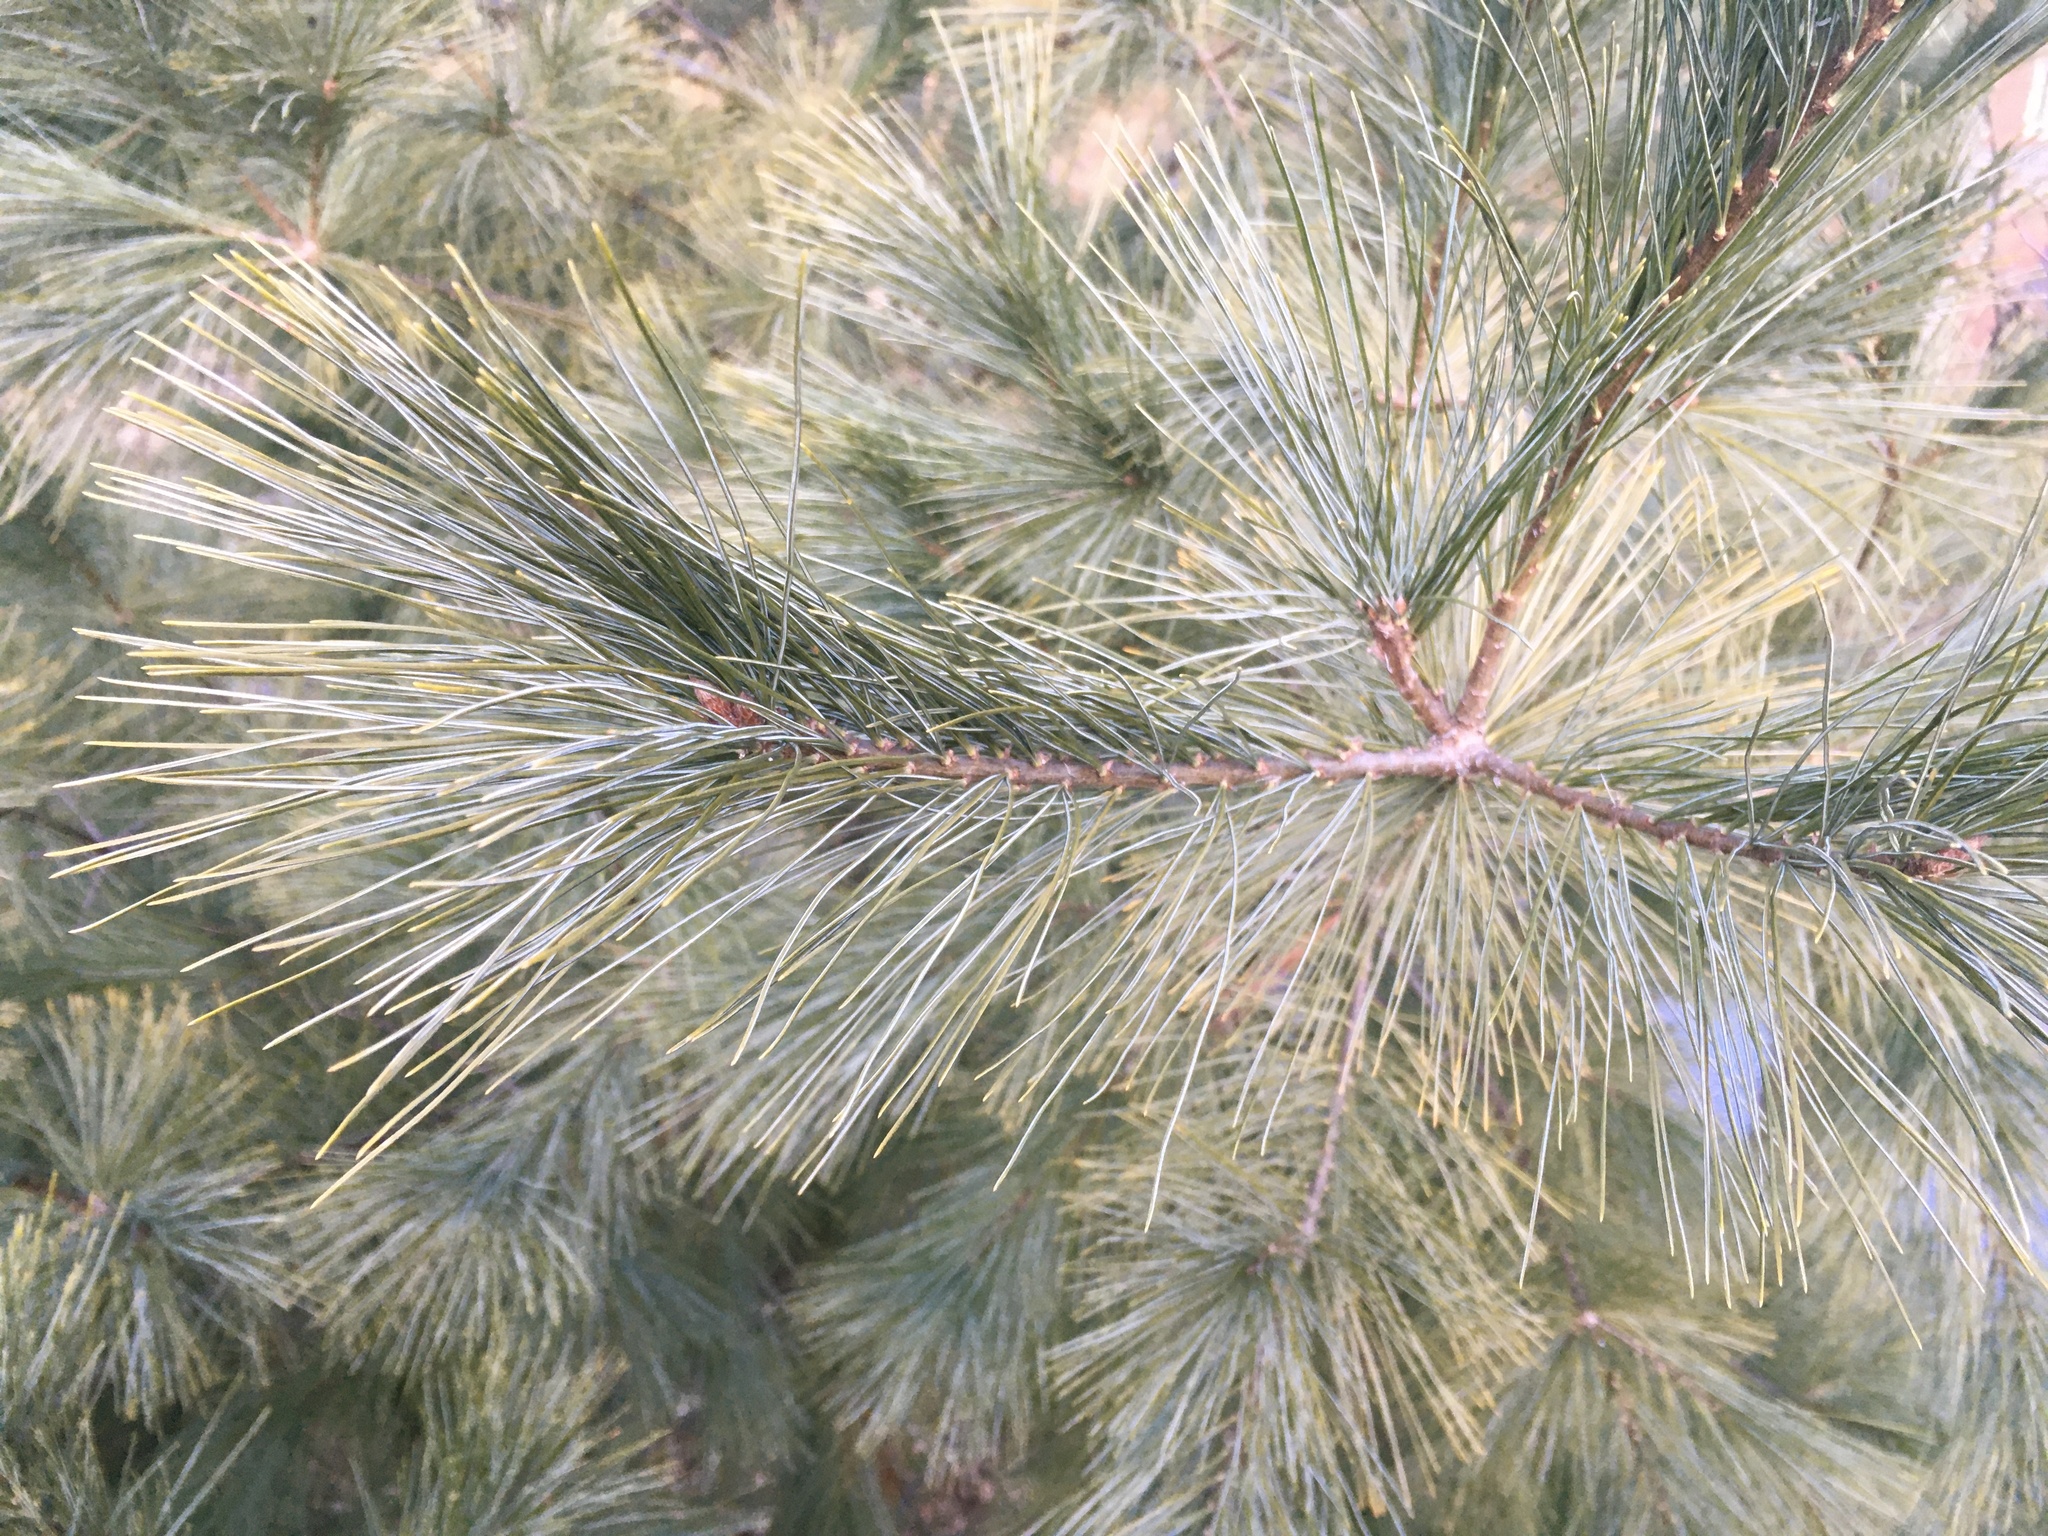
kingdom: Plantae
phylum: Tracheophyta
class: Pinopsida
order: Pinales
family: Pinaceae
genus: Pinus
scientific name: Pinus strobus
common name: Weymouth pine
